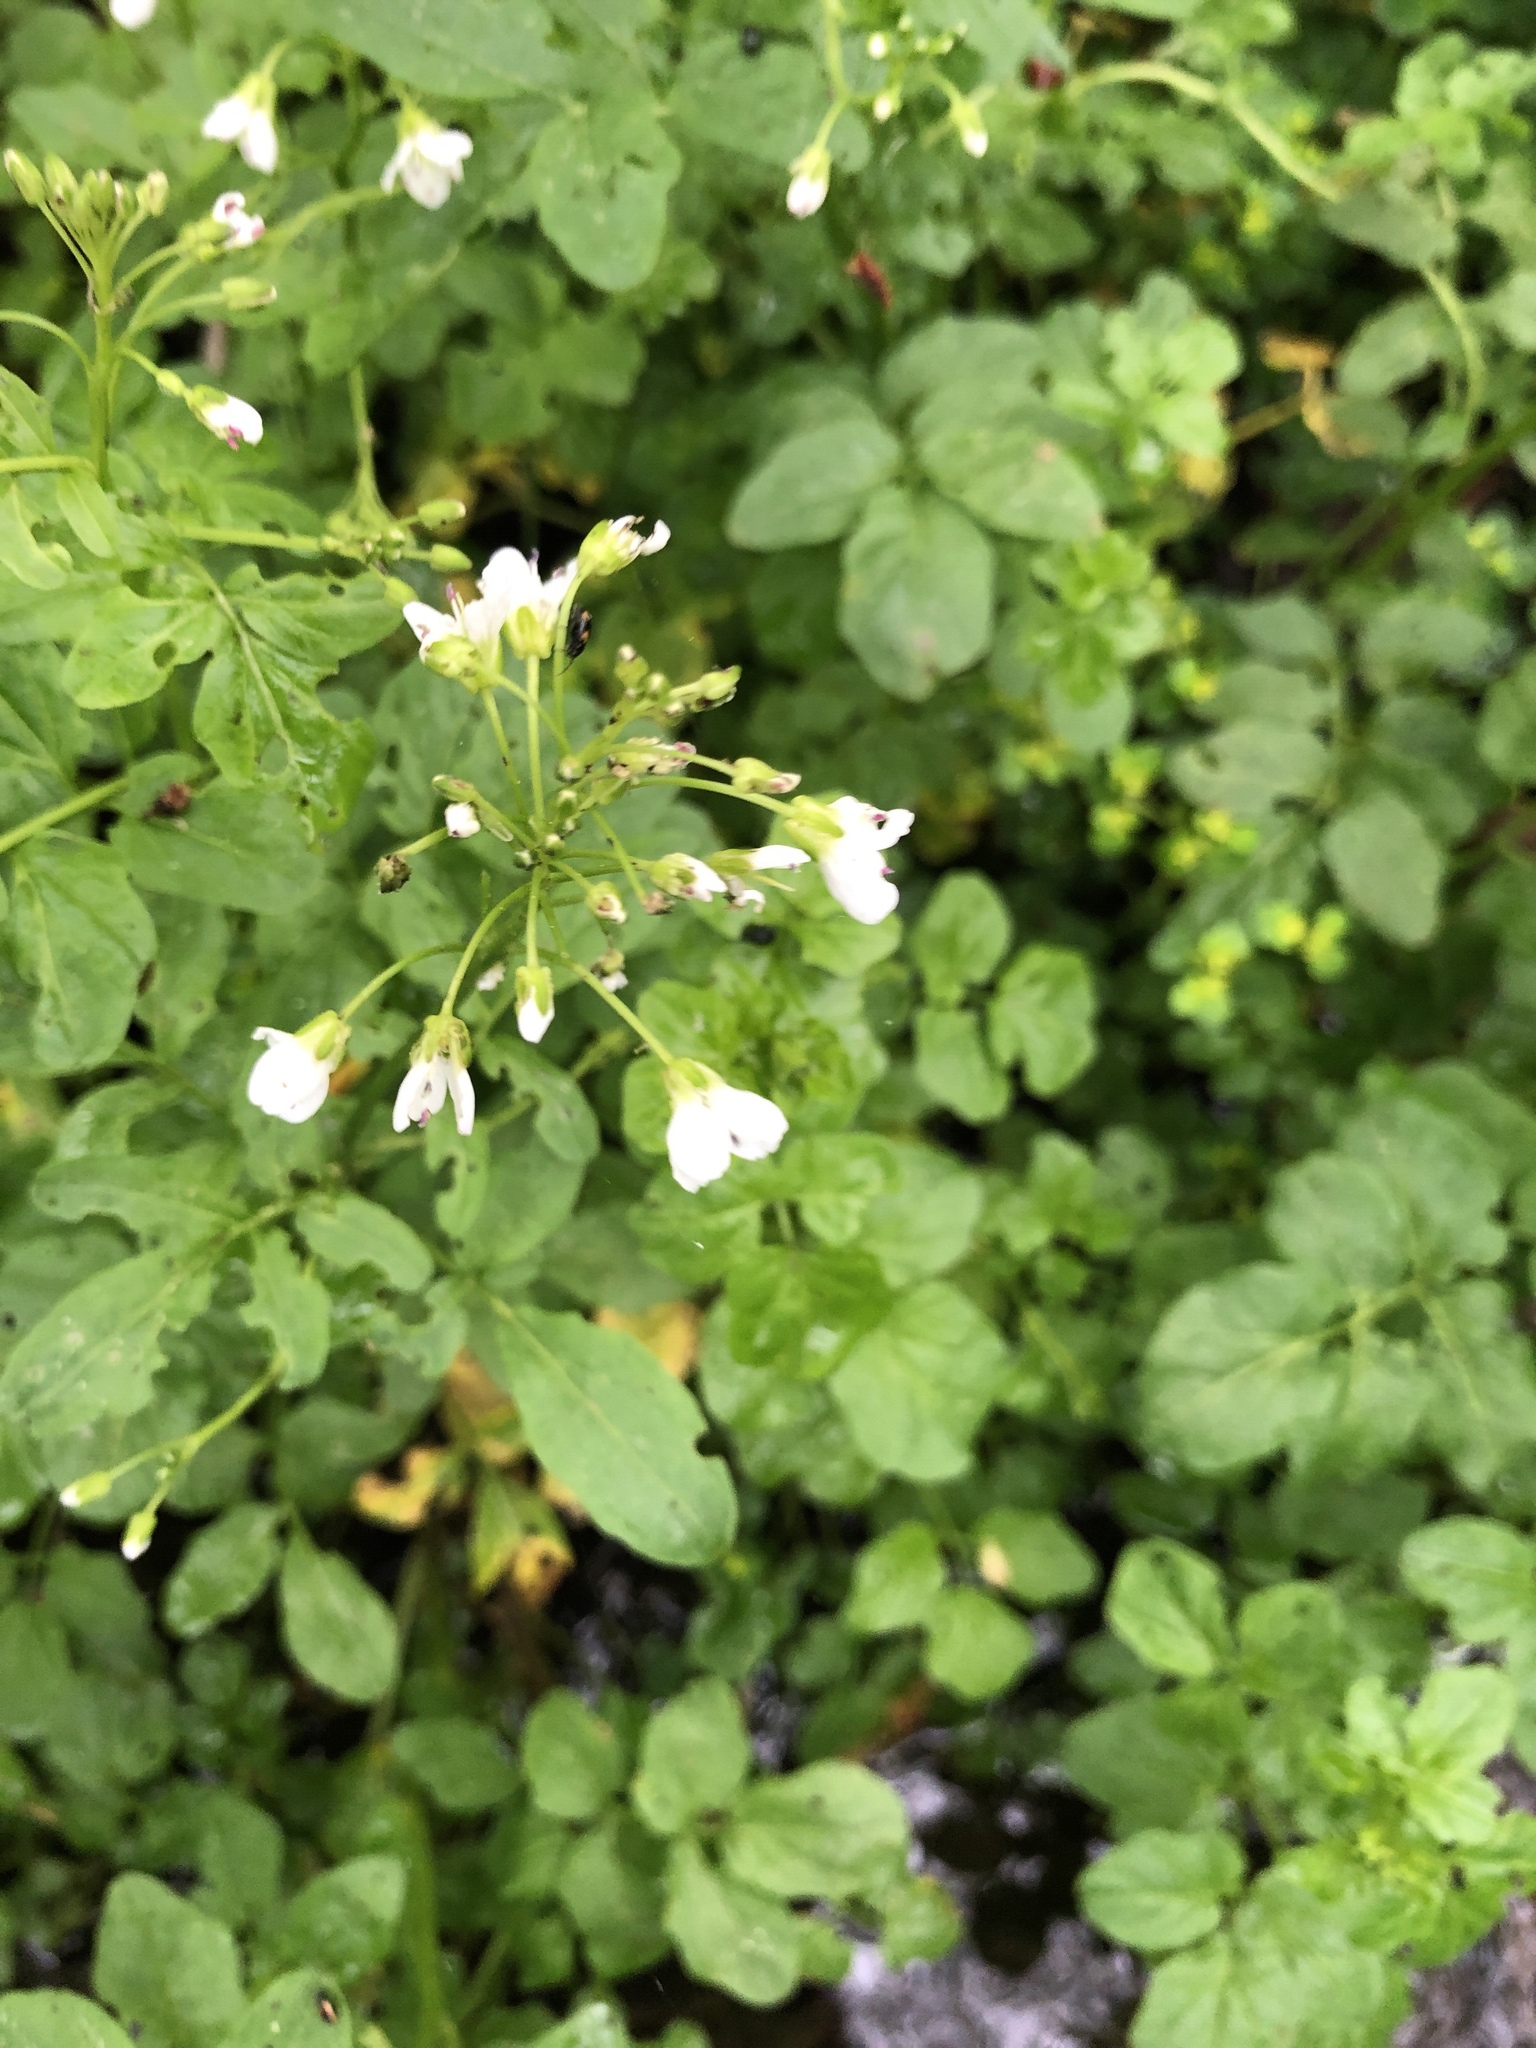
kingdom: Plantae
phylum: Tracheophyta
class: Magnoliopsida
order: Brassicales
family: Brassicaceae
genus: Cardamine
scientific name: Cardamine pratensis
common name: Cuckoo flower
